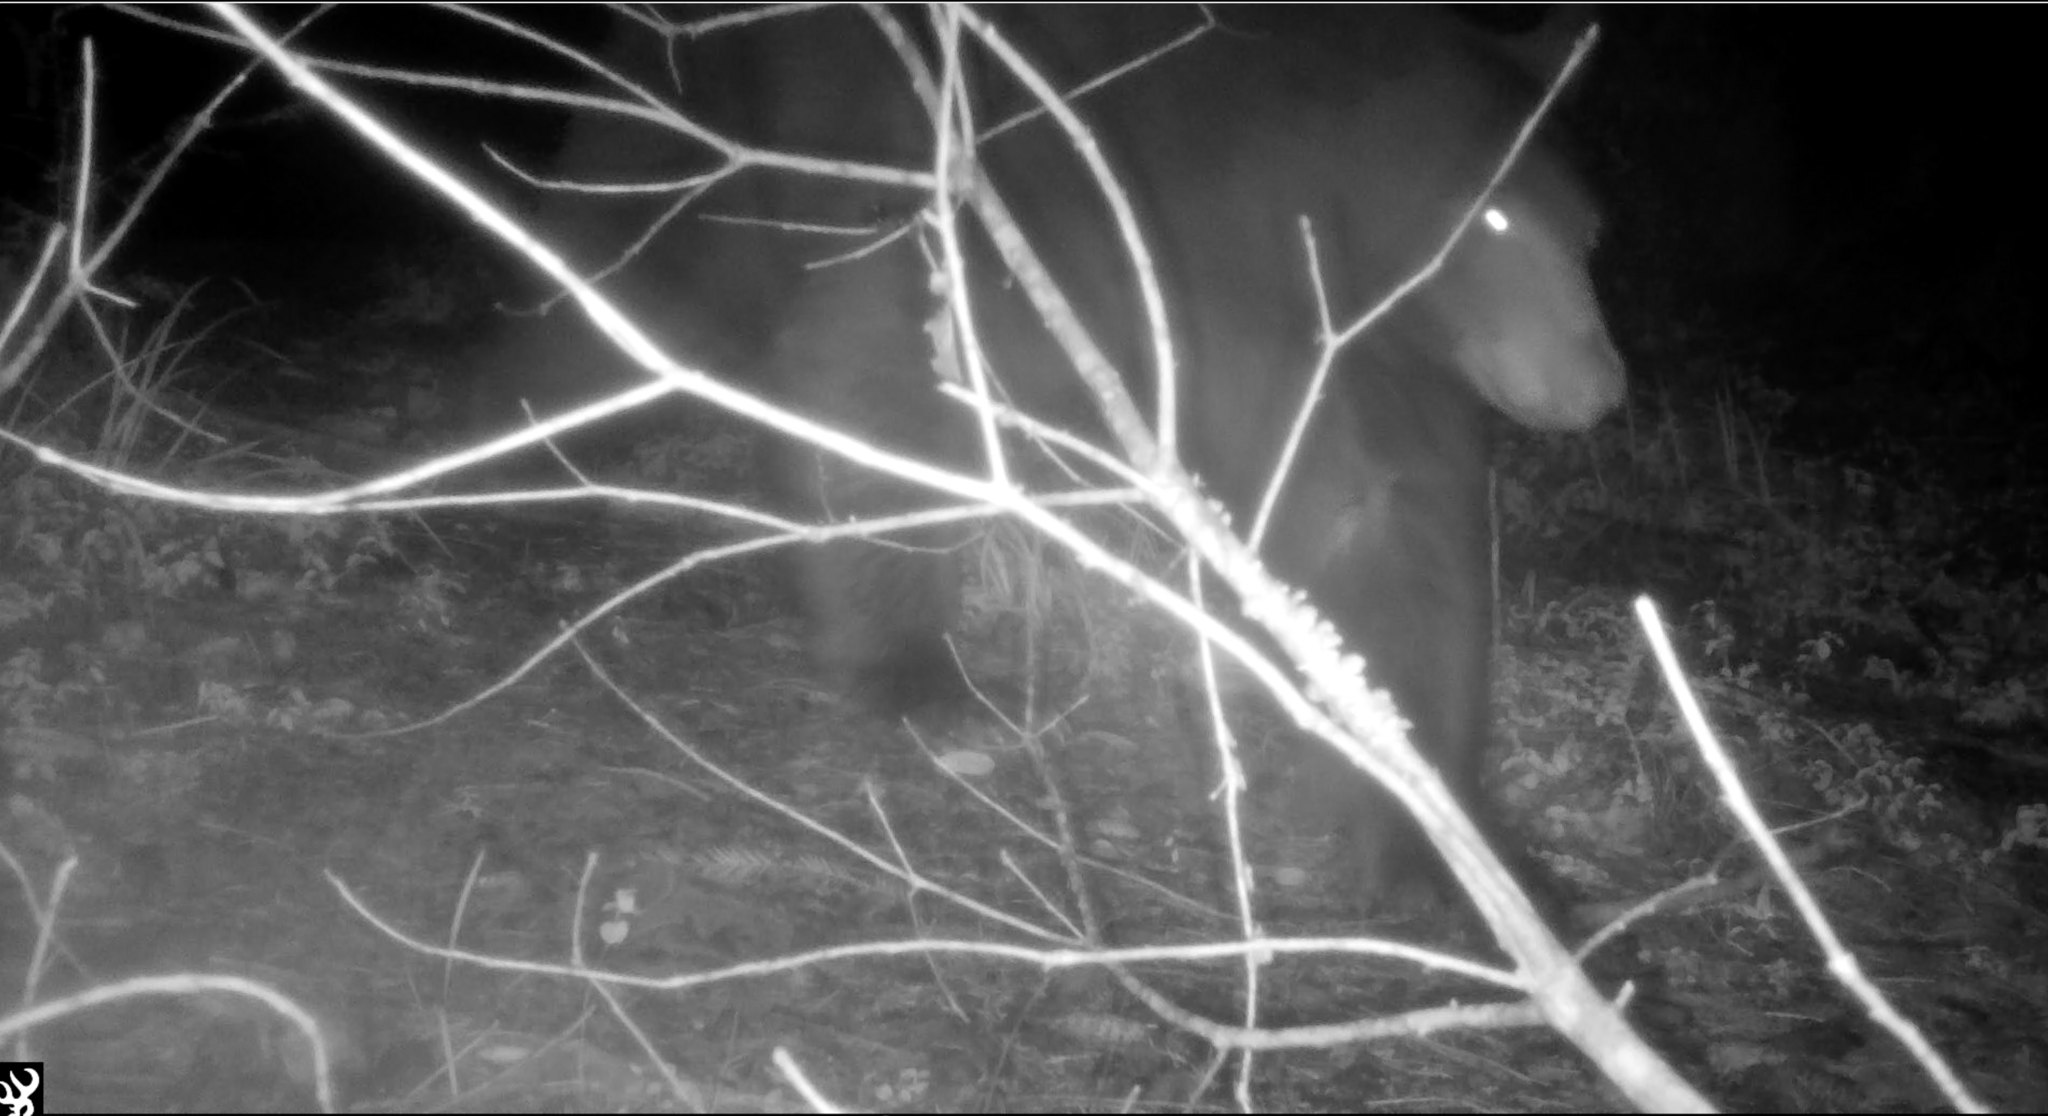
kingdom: Animalia
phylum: Chordata
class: Mammalia
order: Carnivora
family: Ursidae
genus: Ursus
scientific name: Ursus americanus
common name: American black bear
